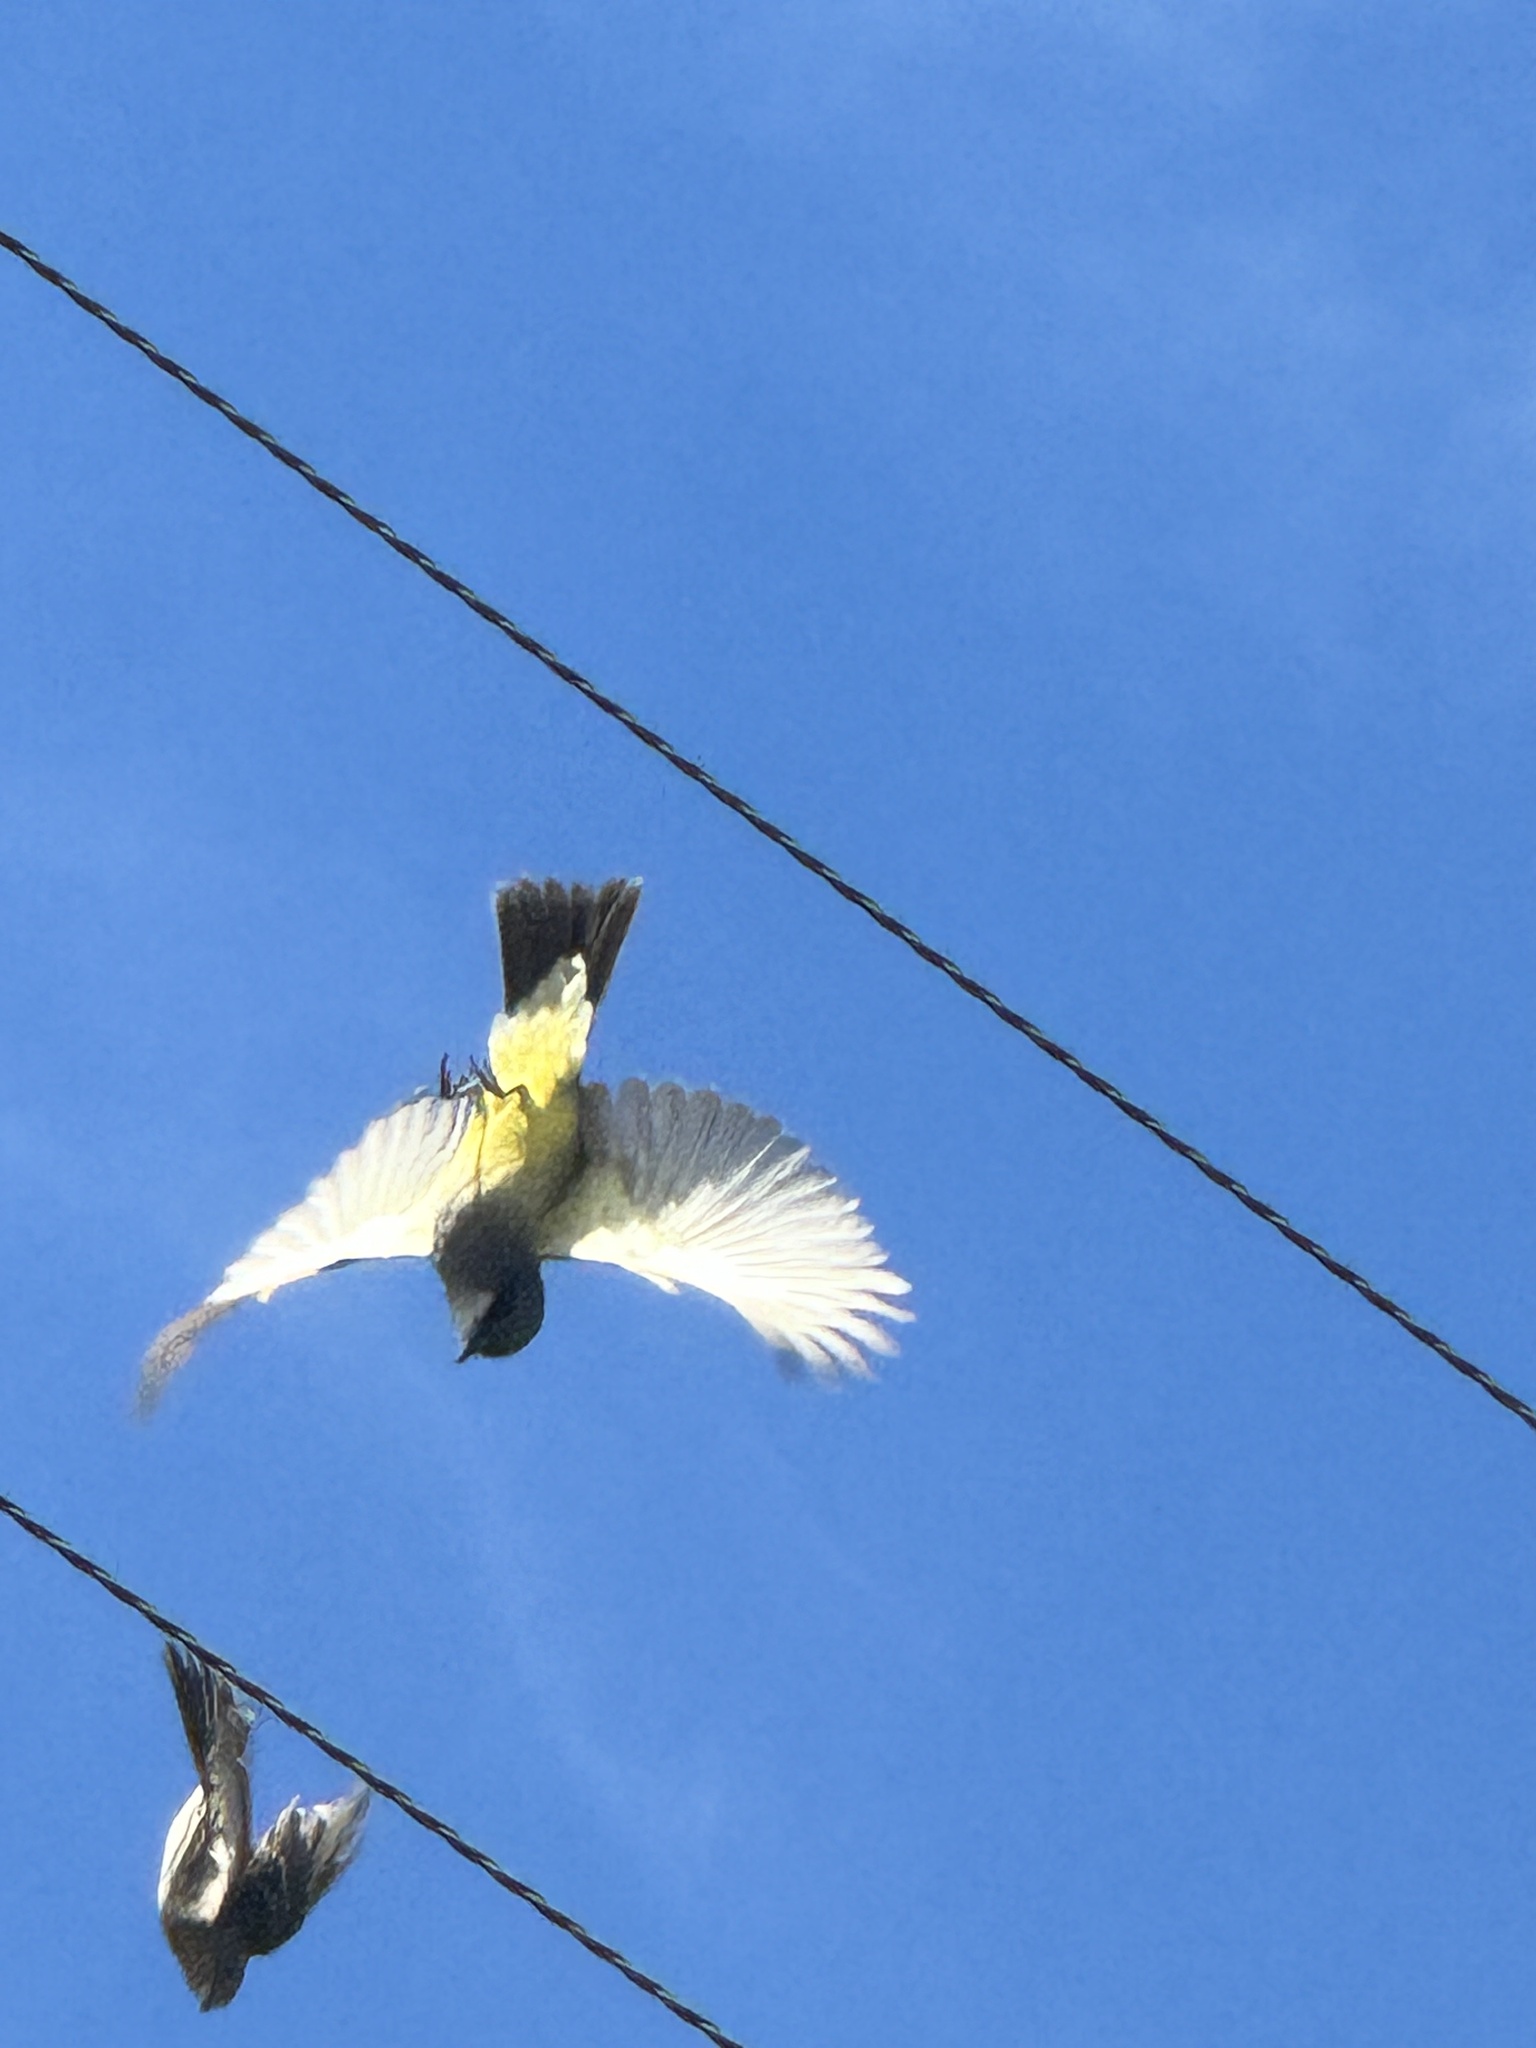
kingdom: Animalia
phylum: Chordata
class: Aves
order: Passeriformes
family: Tyrannidae
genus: Tyrannus
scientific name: Tyrannus vociferans
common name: Cassin's kingbird
